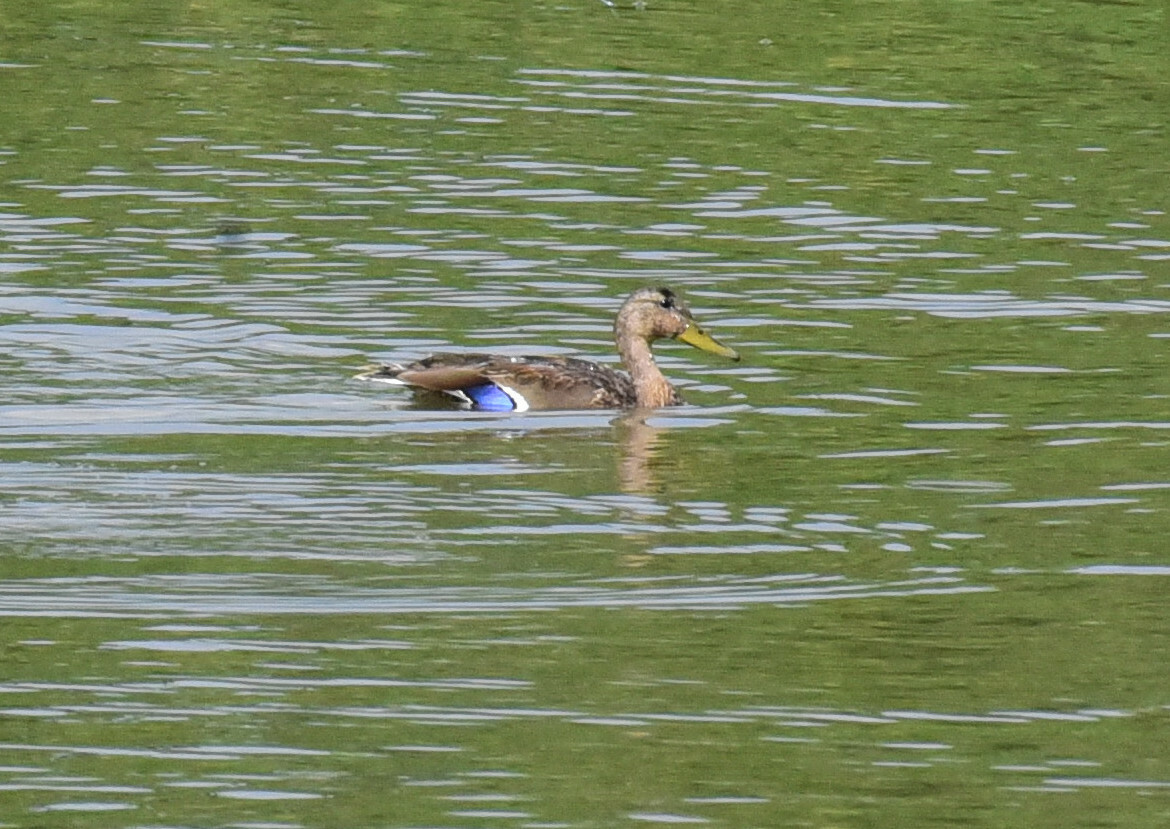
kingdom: Animalia
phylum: Chordata
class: Aves
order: Anseriformes
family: Anatidae
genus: Anas
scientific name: Anas platyrhynchos
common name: Mallard
